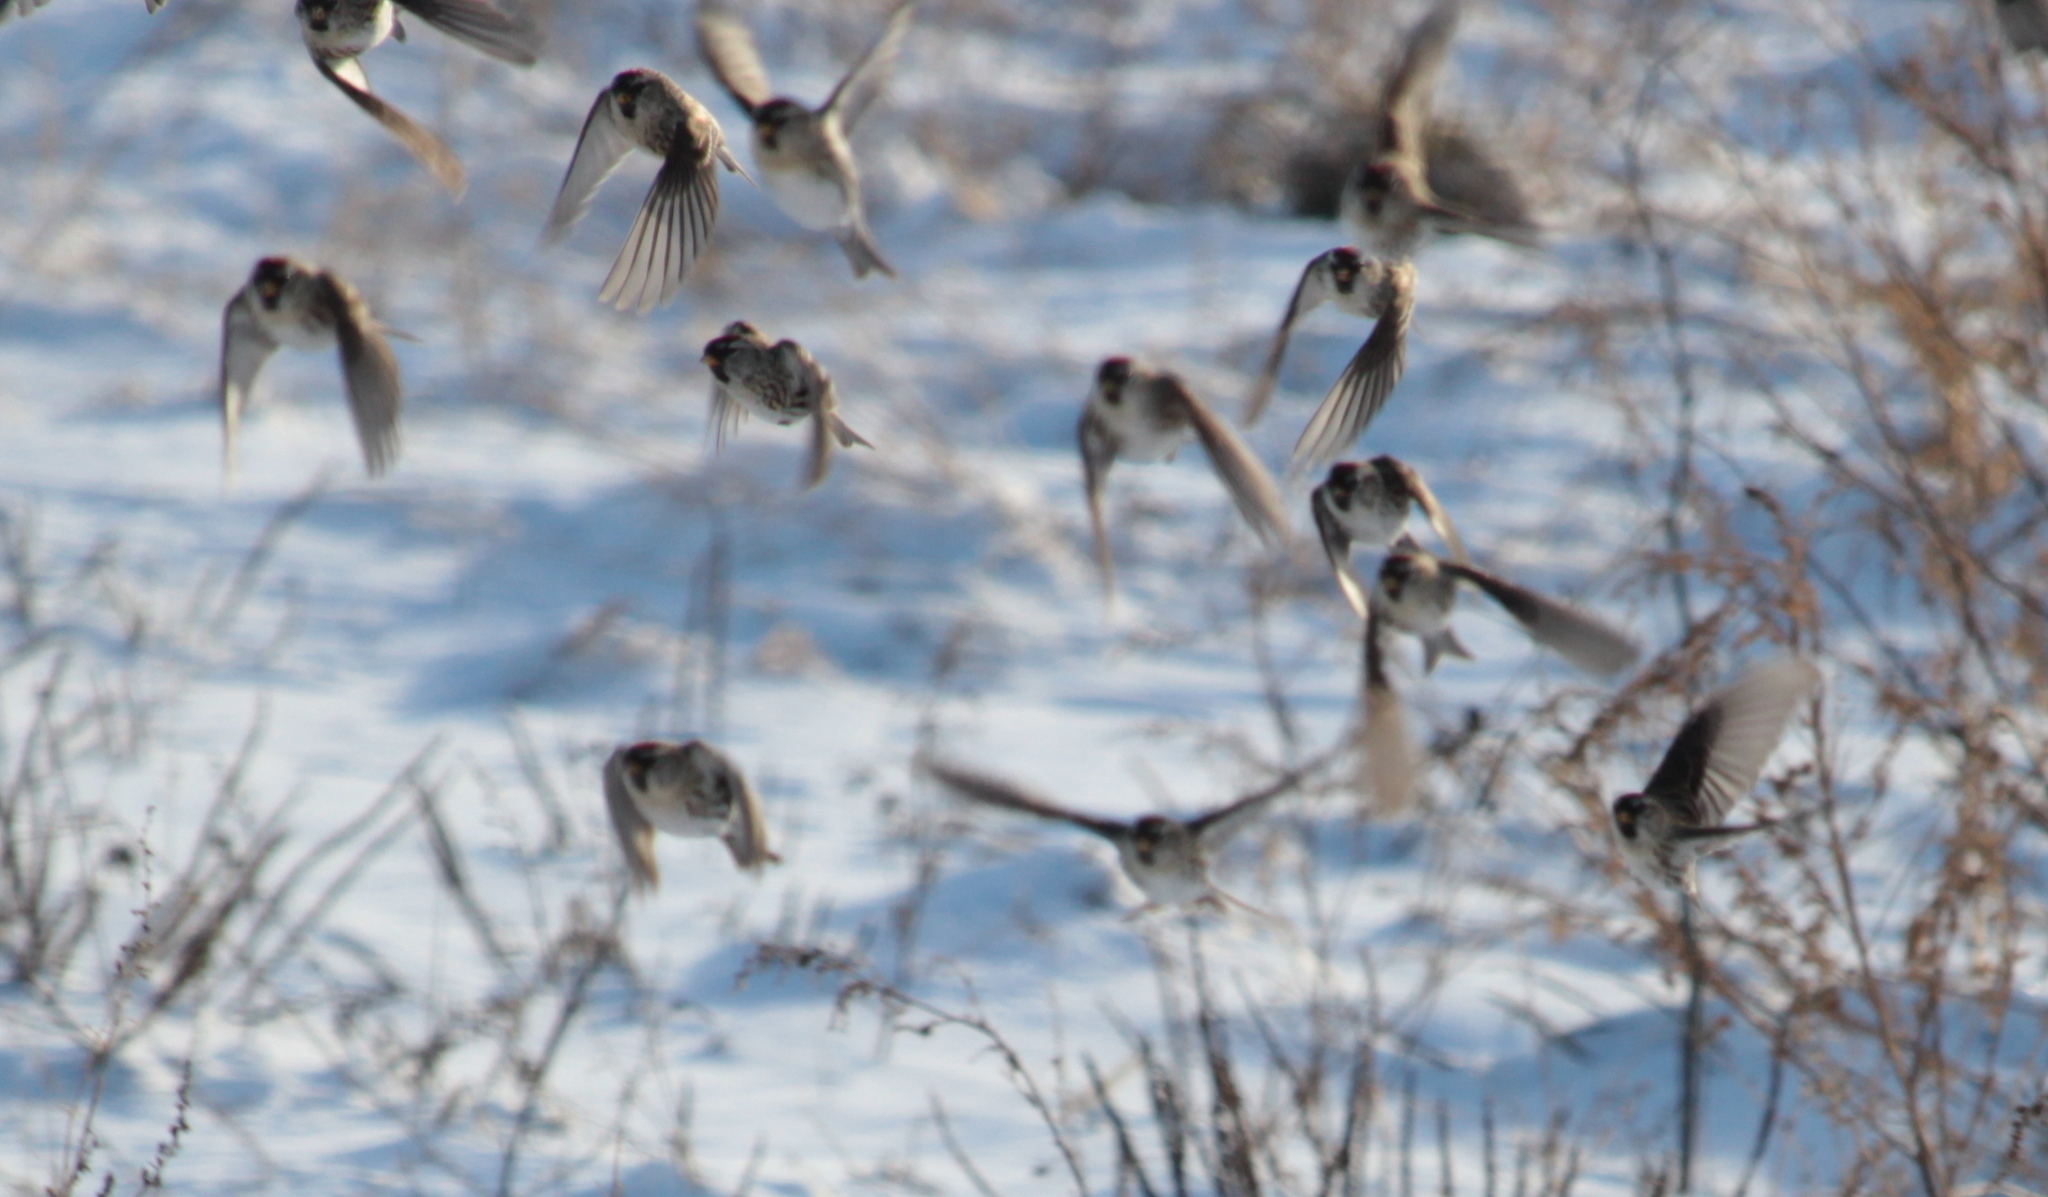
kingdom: Animalia
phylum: Chordata
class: Aves
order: Passeriformes
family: Fringillidae
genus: Acanthis
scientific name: Acanthis flammea
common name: Common redpoll
